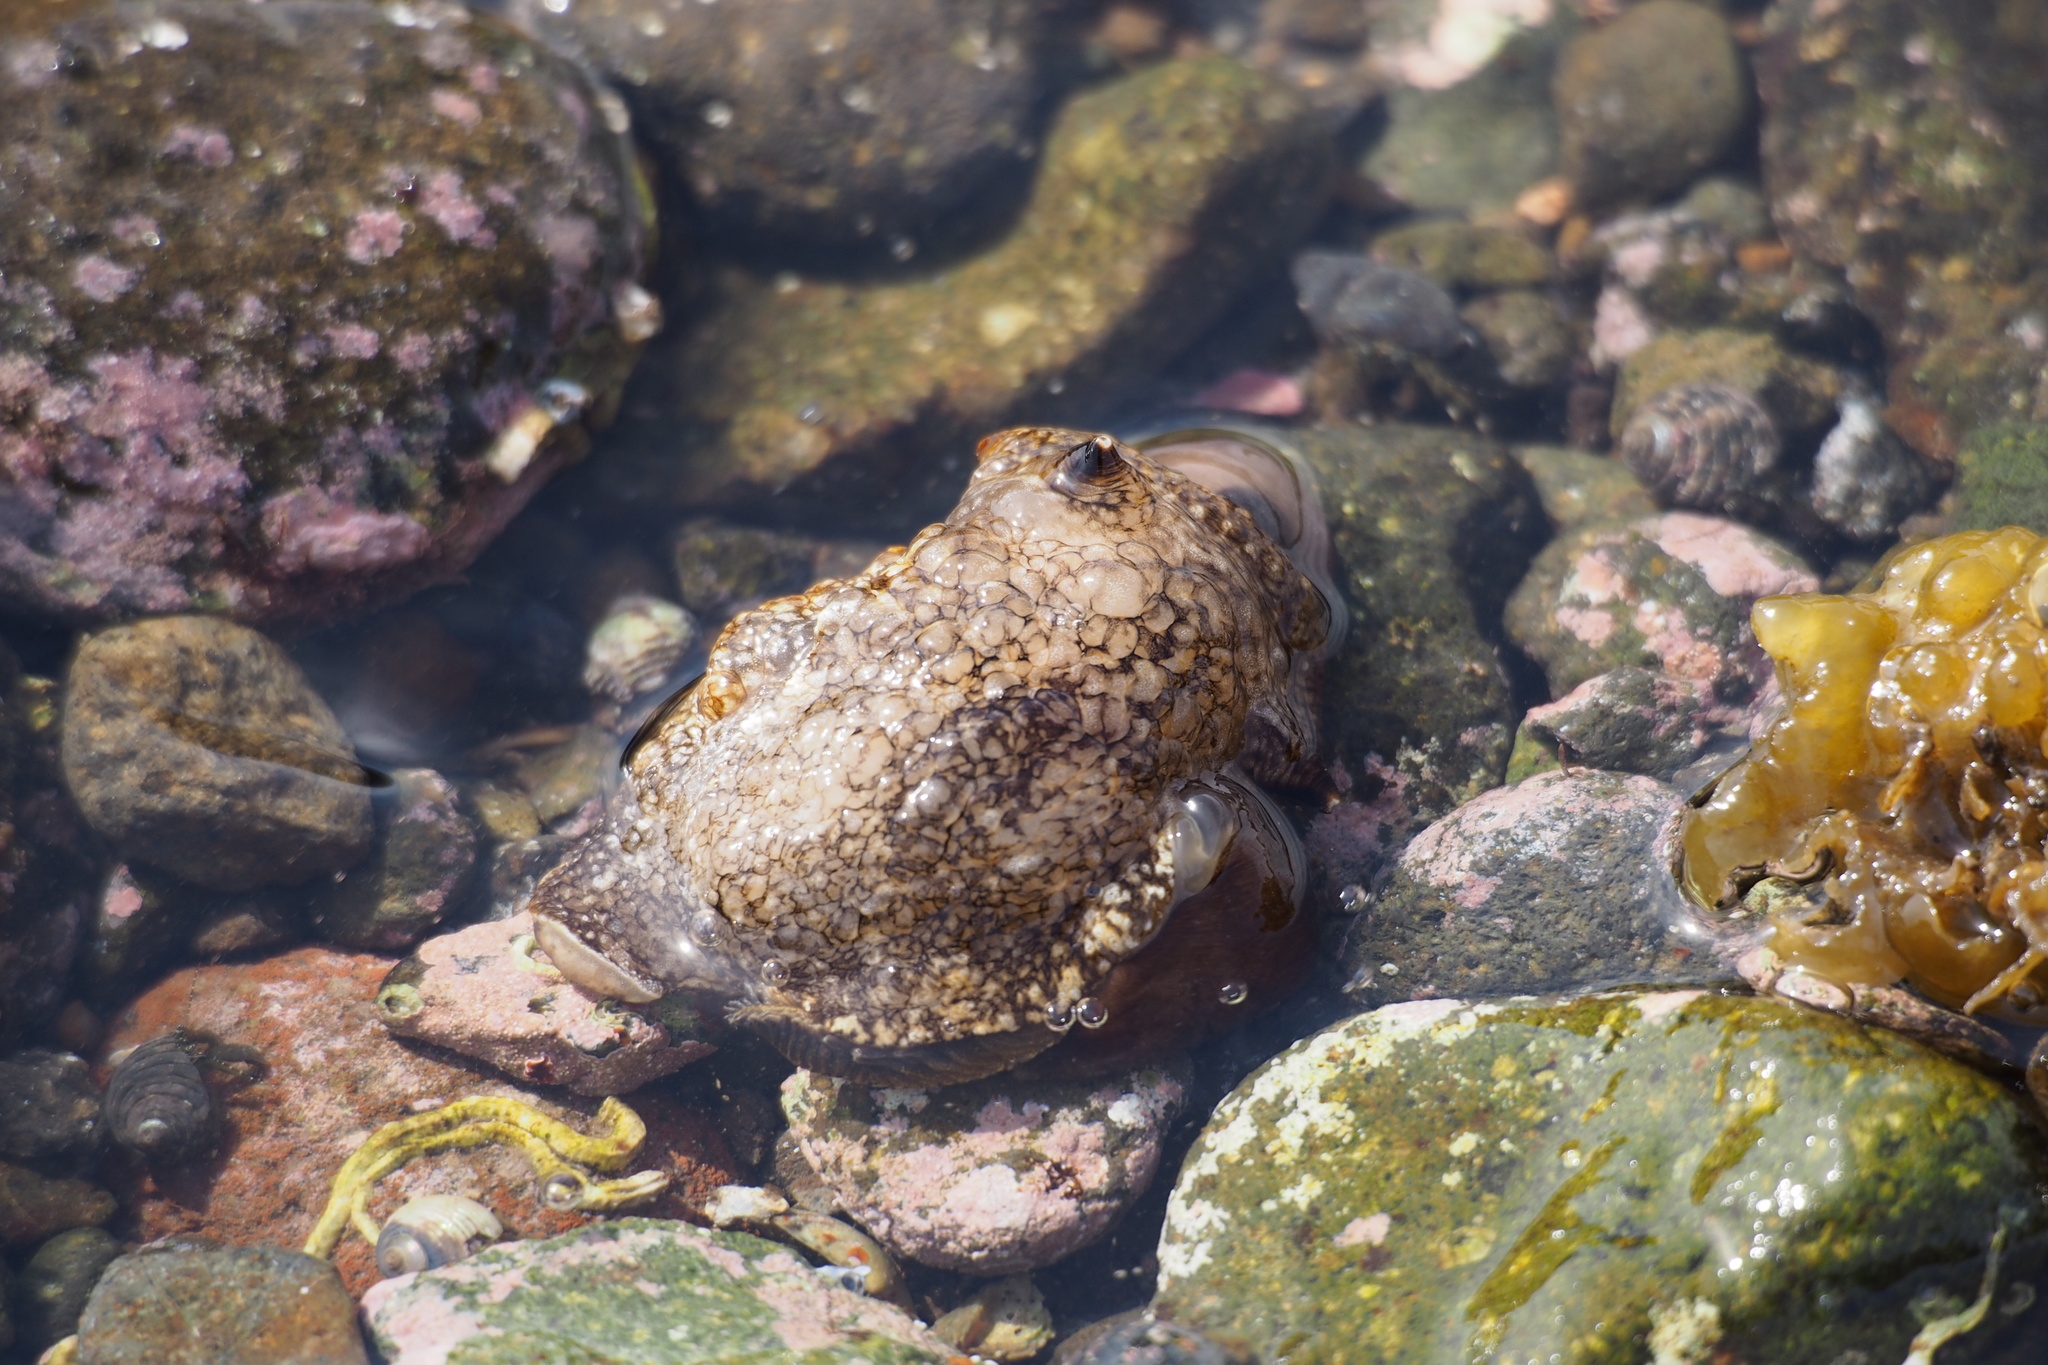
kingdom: Animalia
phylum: Mollusca
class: Gastropoda
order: Pleurobranchida
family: Pleurobranchaeidae
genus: Pleurobranchaea
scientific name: Pleurobranchaea japonica
